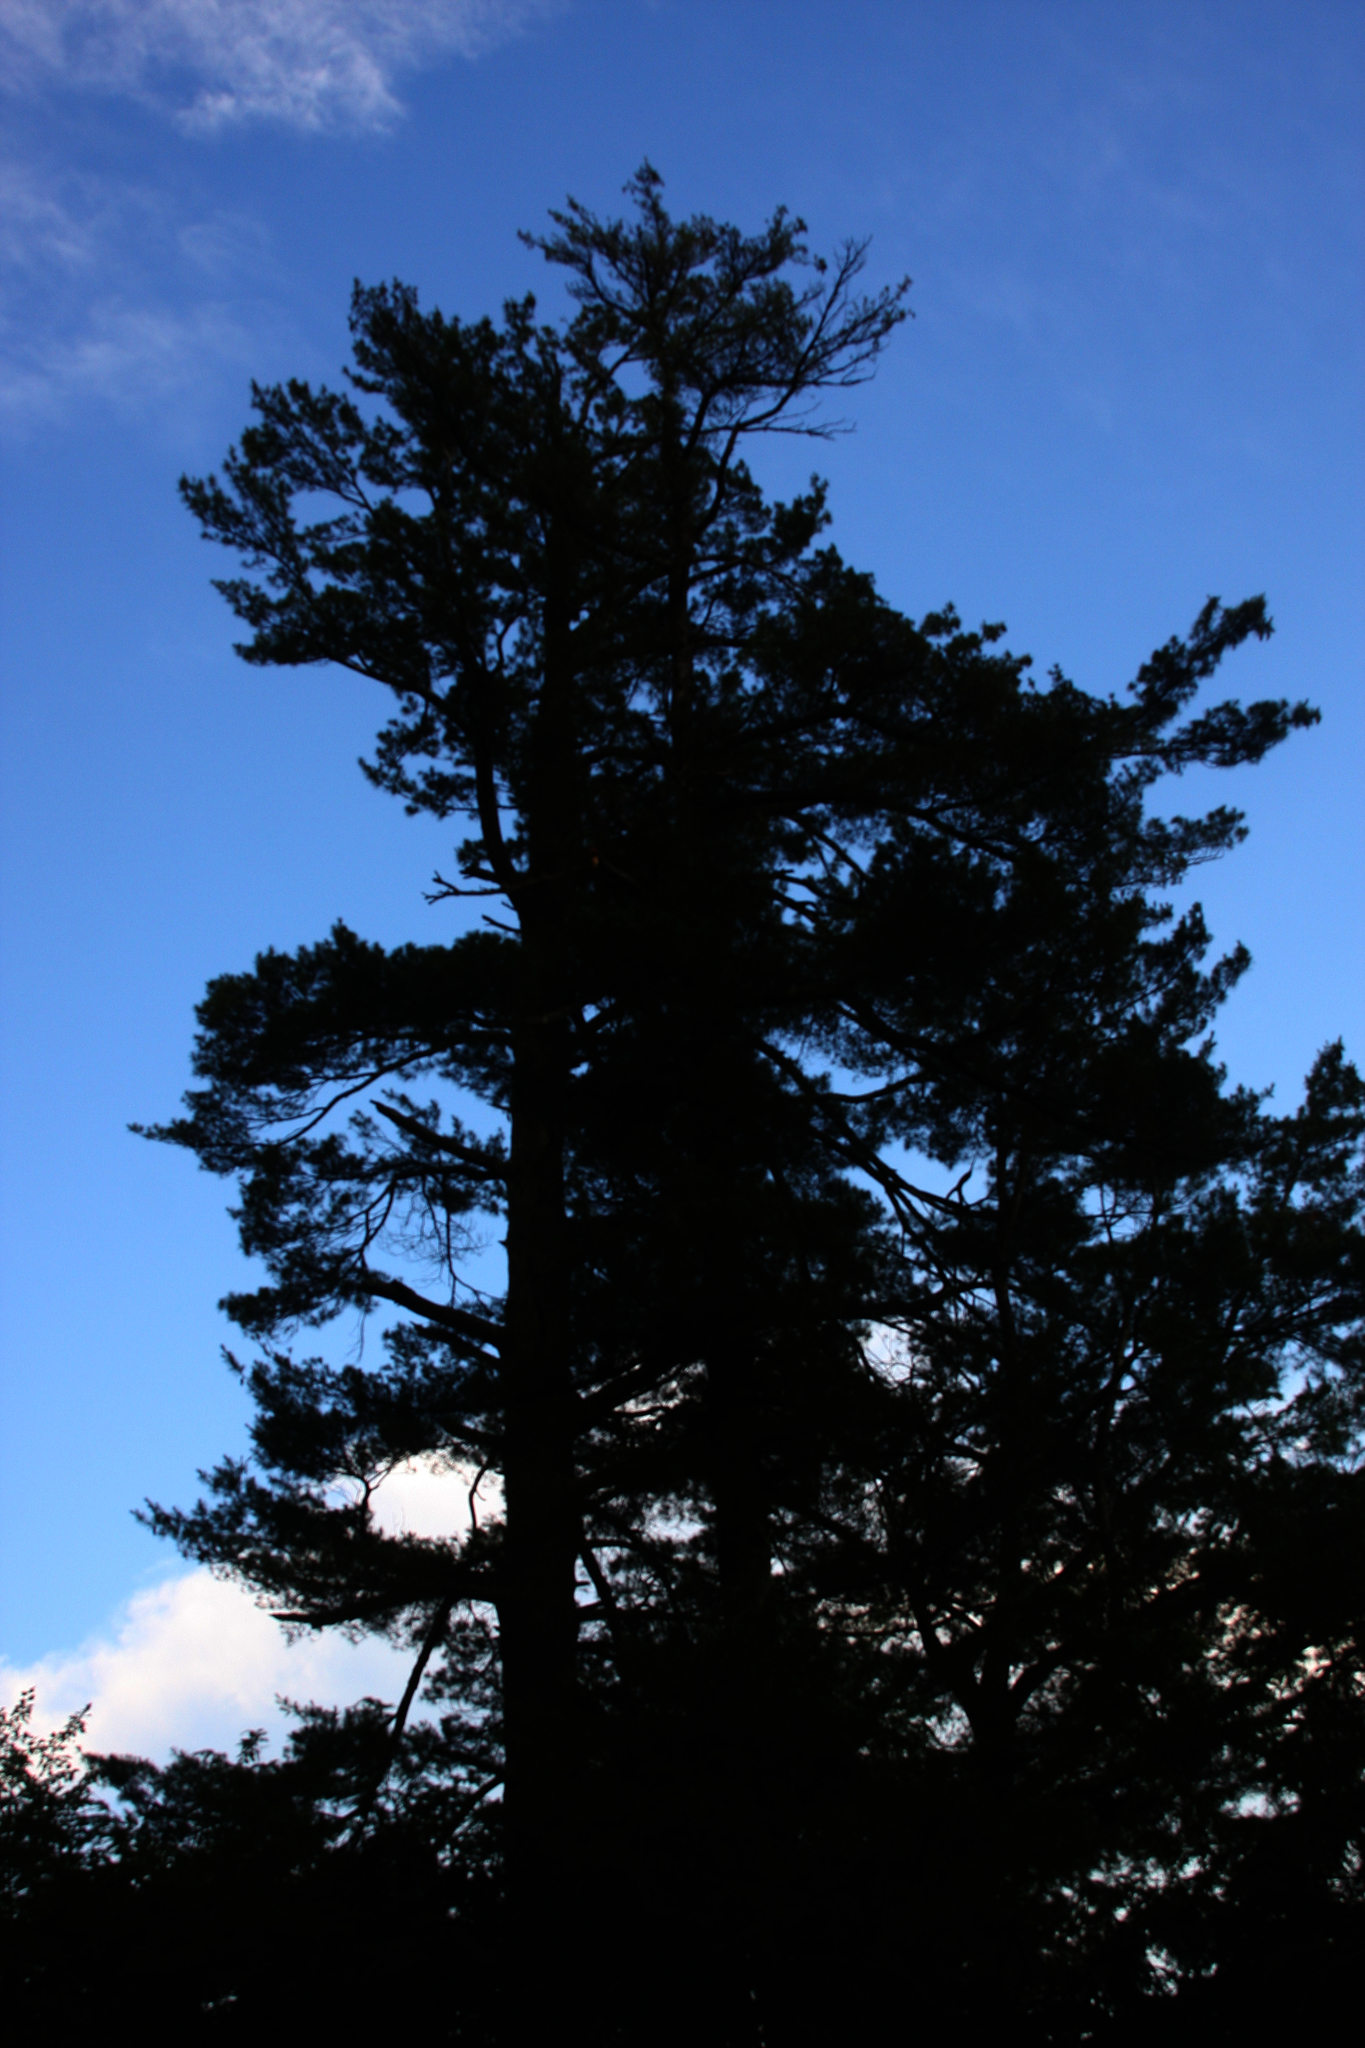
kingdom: Plantae
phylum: Tracheophyta
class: Pinopsida
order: Pinales
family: Pinaceae
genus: Pinus
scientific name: Pinus strobus
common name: Weymouth pine
